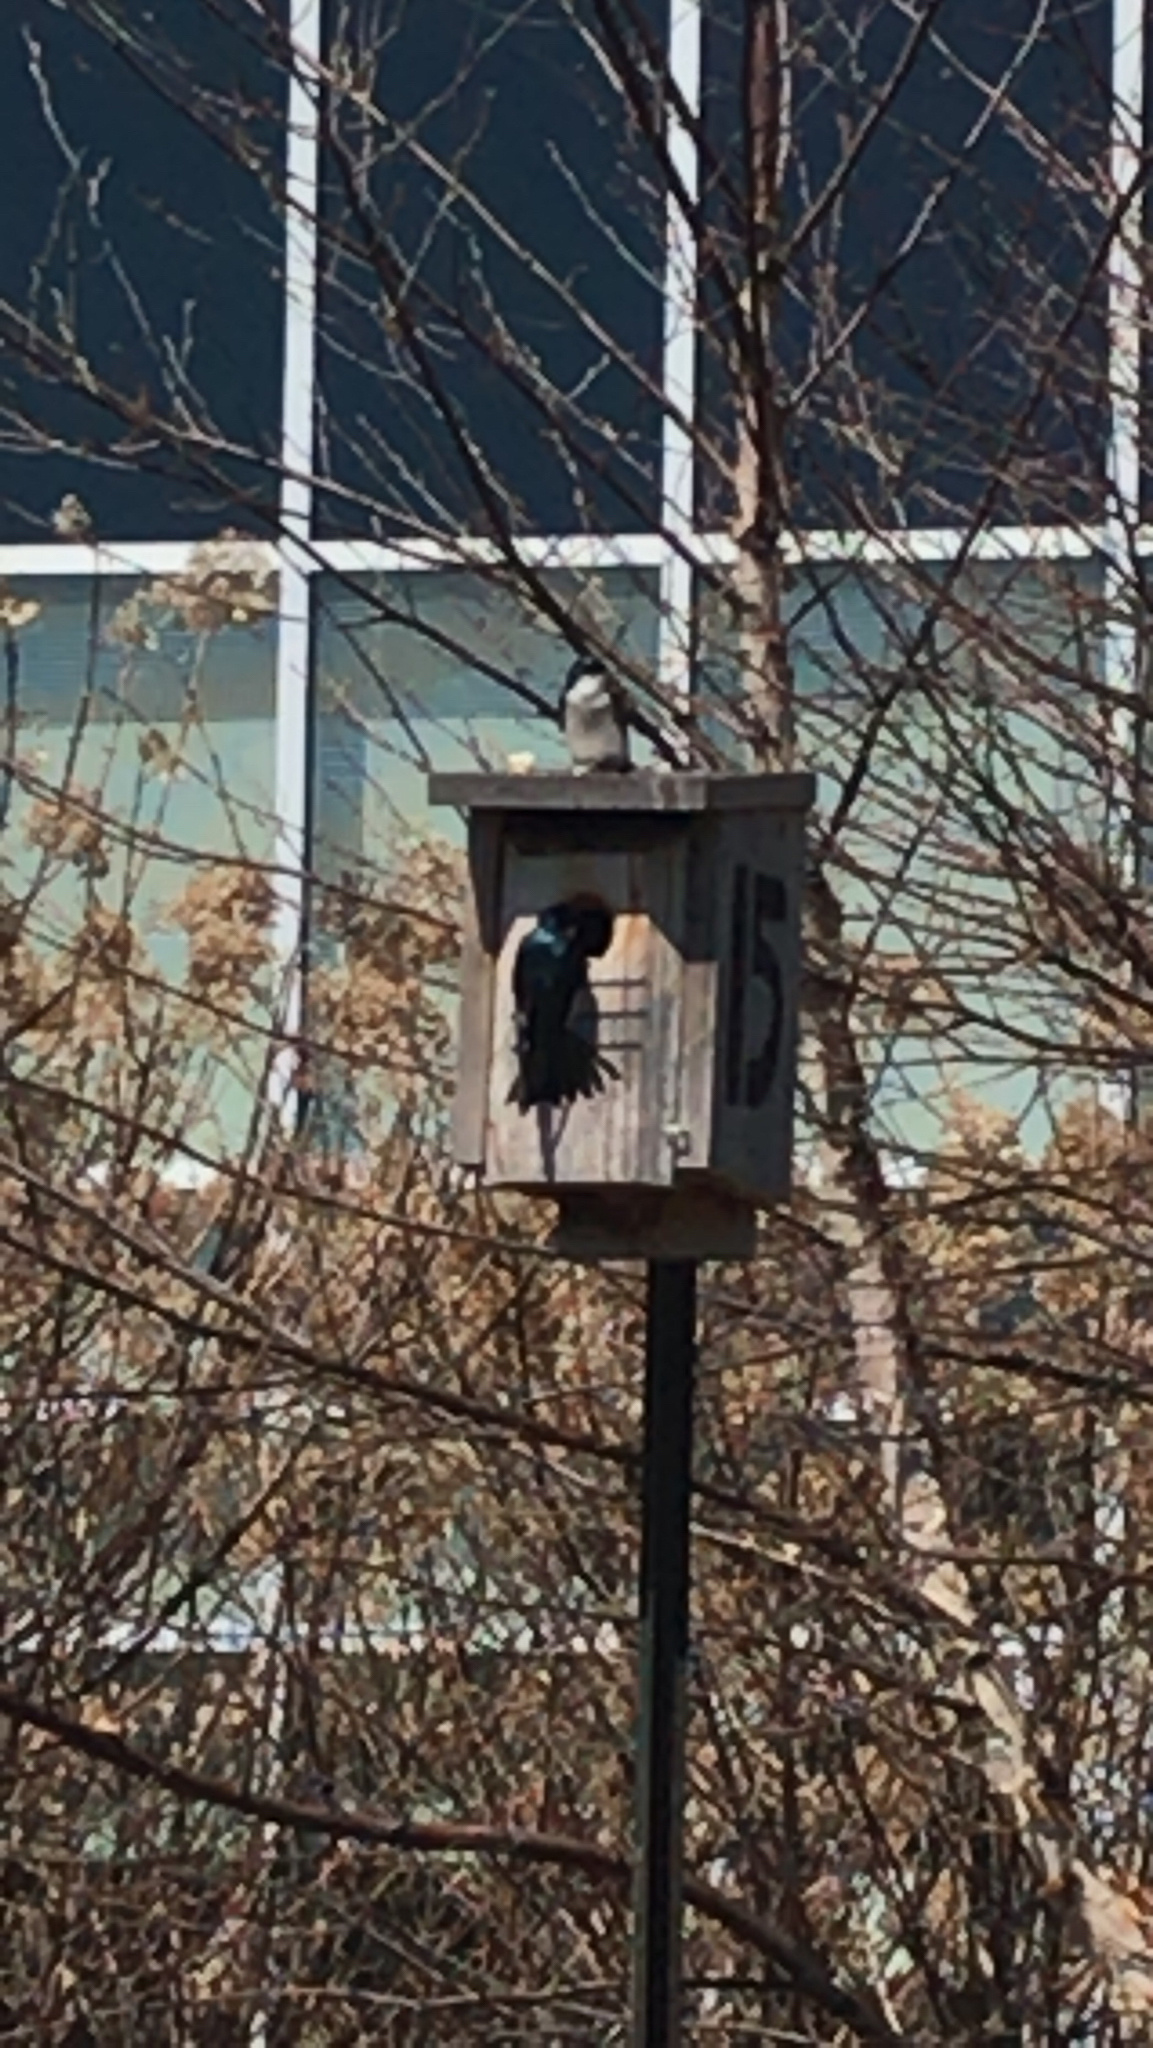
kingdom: Animalia
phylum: Chordata
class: Aves
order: Passeriformes
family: Hirundinidae
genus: Tachycineta
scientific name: Tachycineta bicolor
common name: Tree swallow
